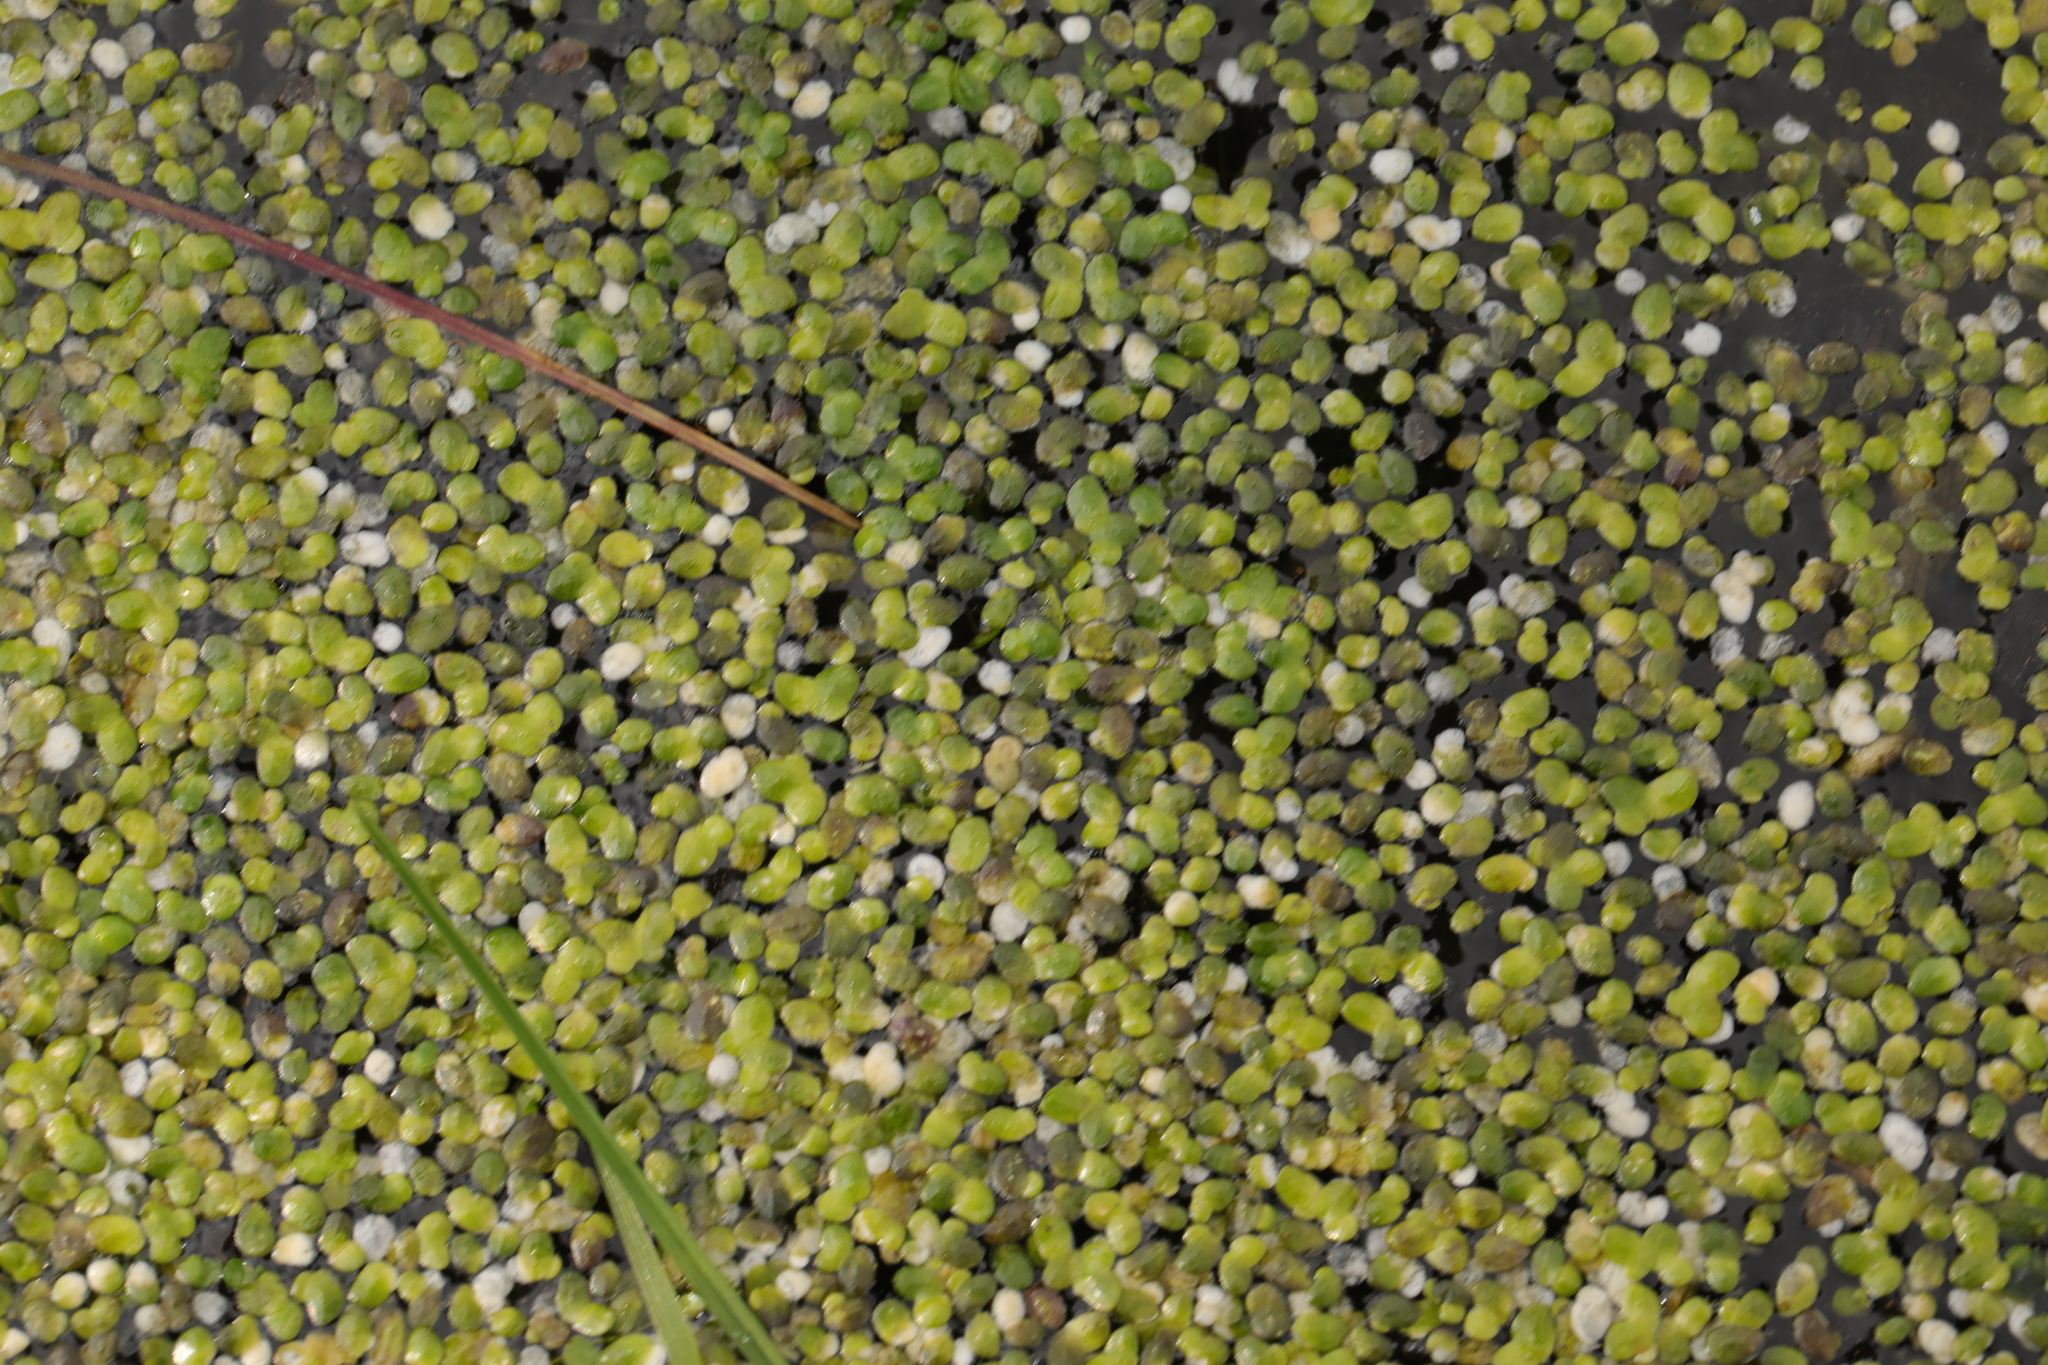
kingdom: Plantae
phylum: Tracheophyta
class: Liliopsida
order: Alismatales
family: Araceae
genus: Lemna
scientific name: Lemna minor
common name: Common duckweed
